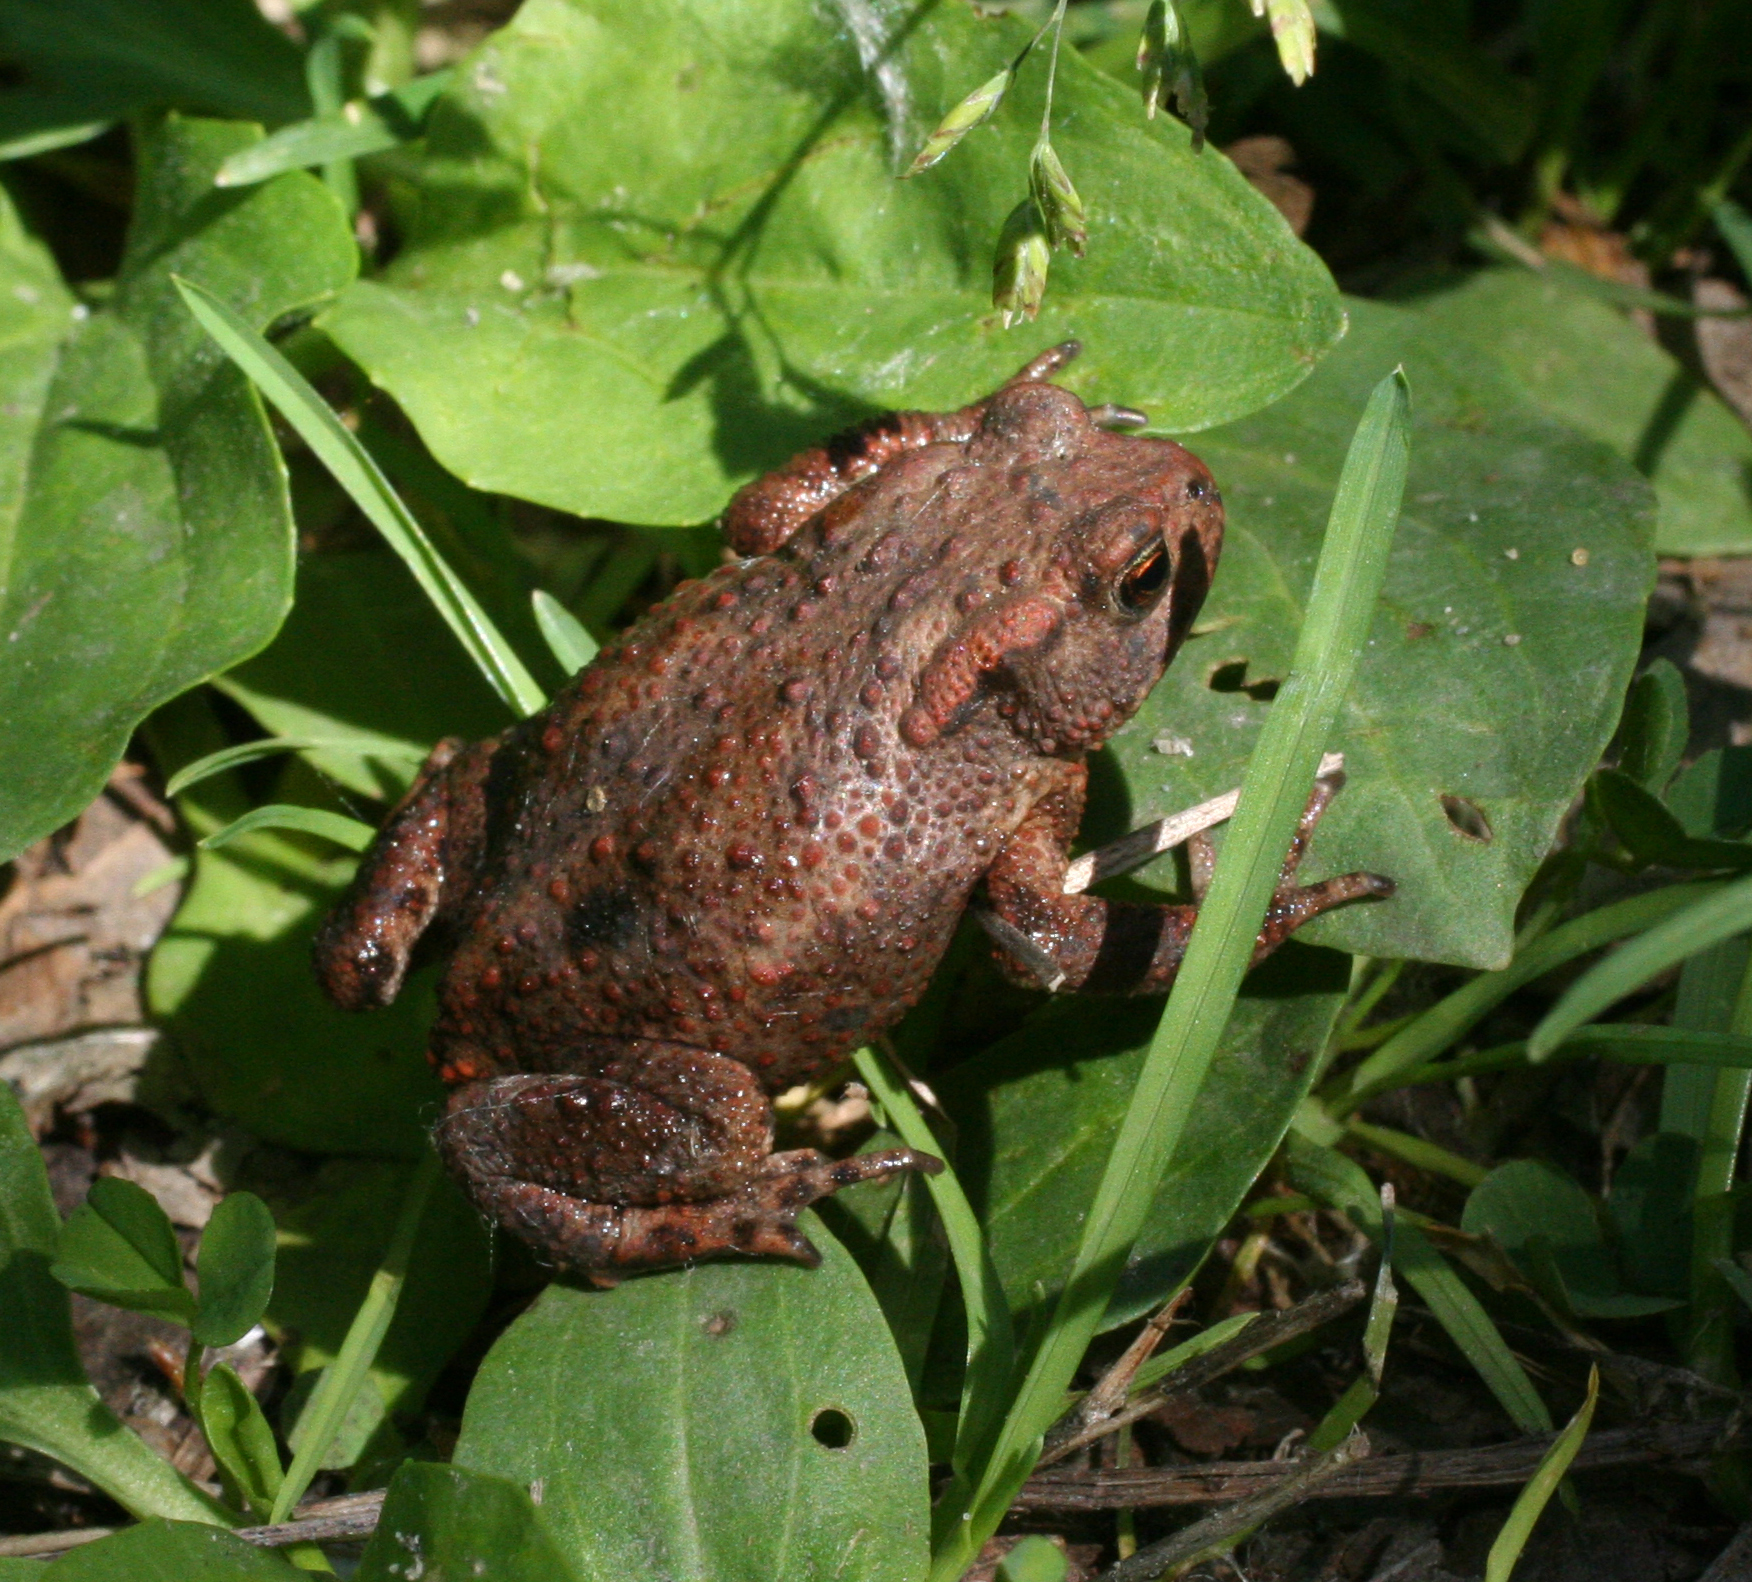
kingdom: Animalia
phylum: Chordata
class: Amphibia
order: Anura
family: Bufonidae
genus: Bufo
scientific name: Bufo bufo
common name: Common toad
